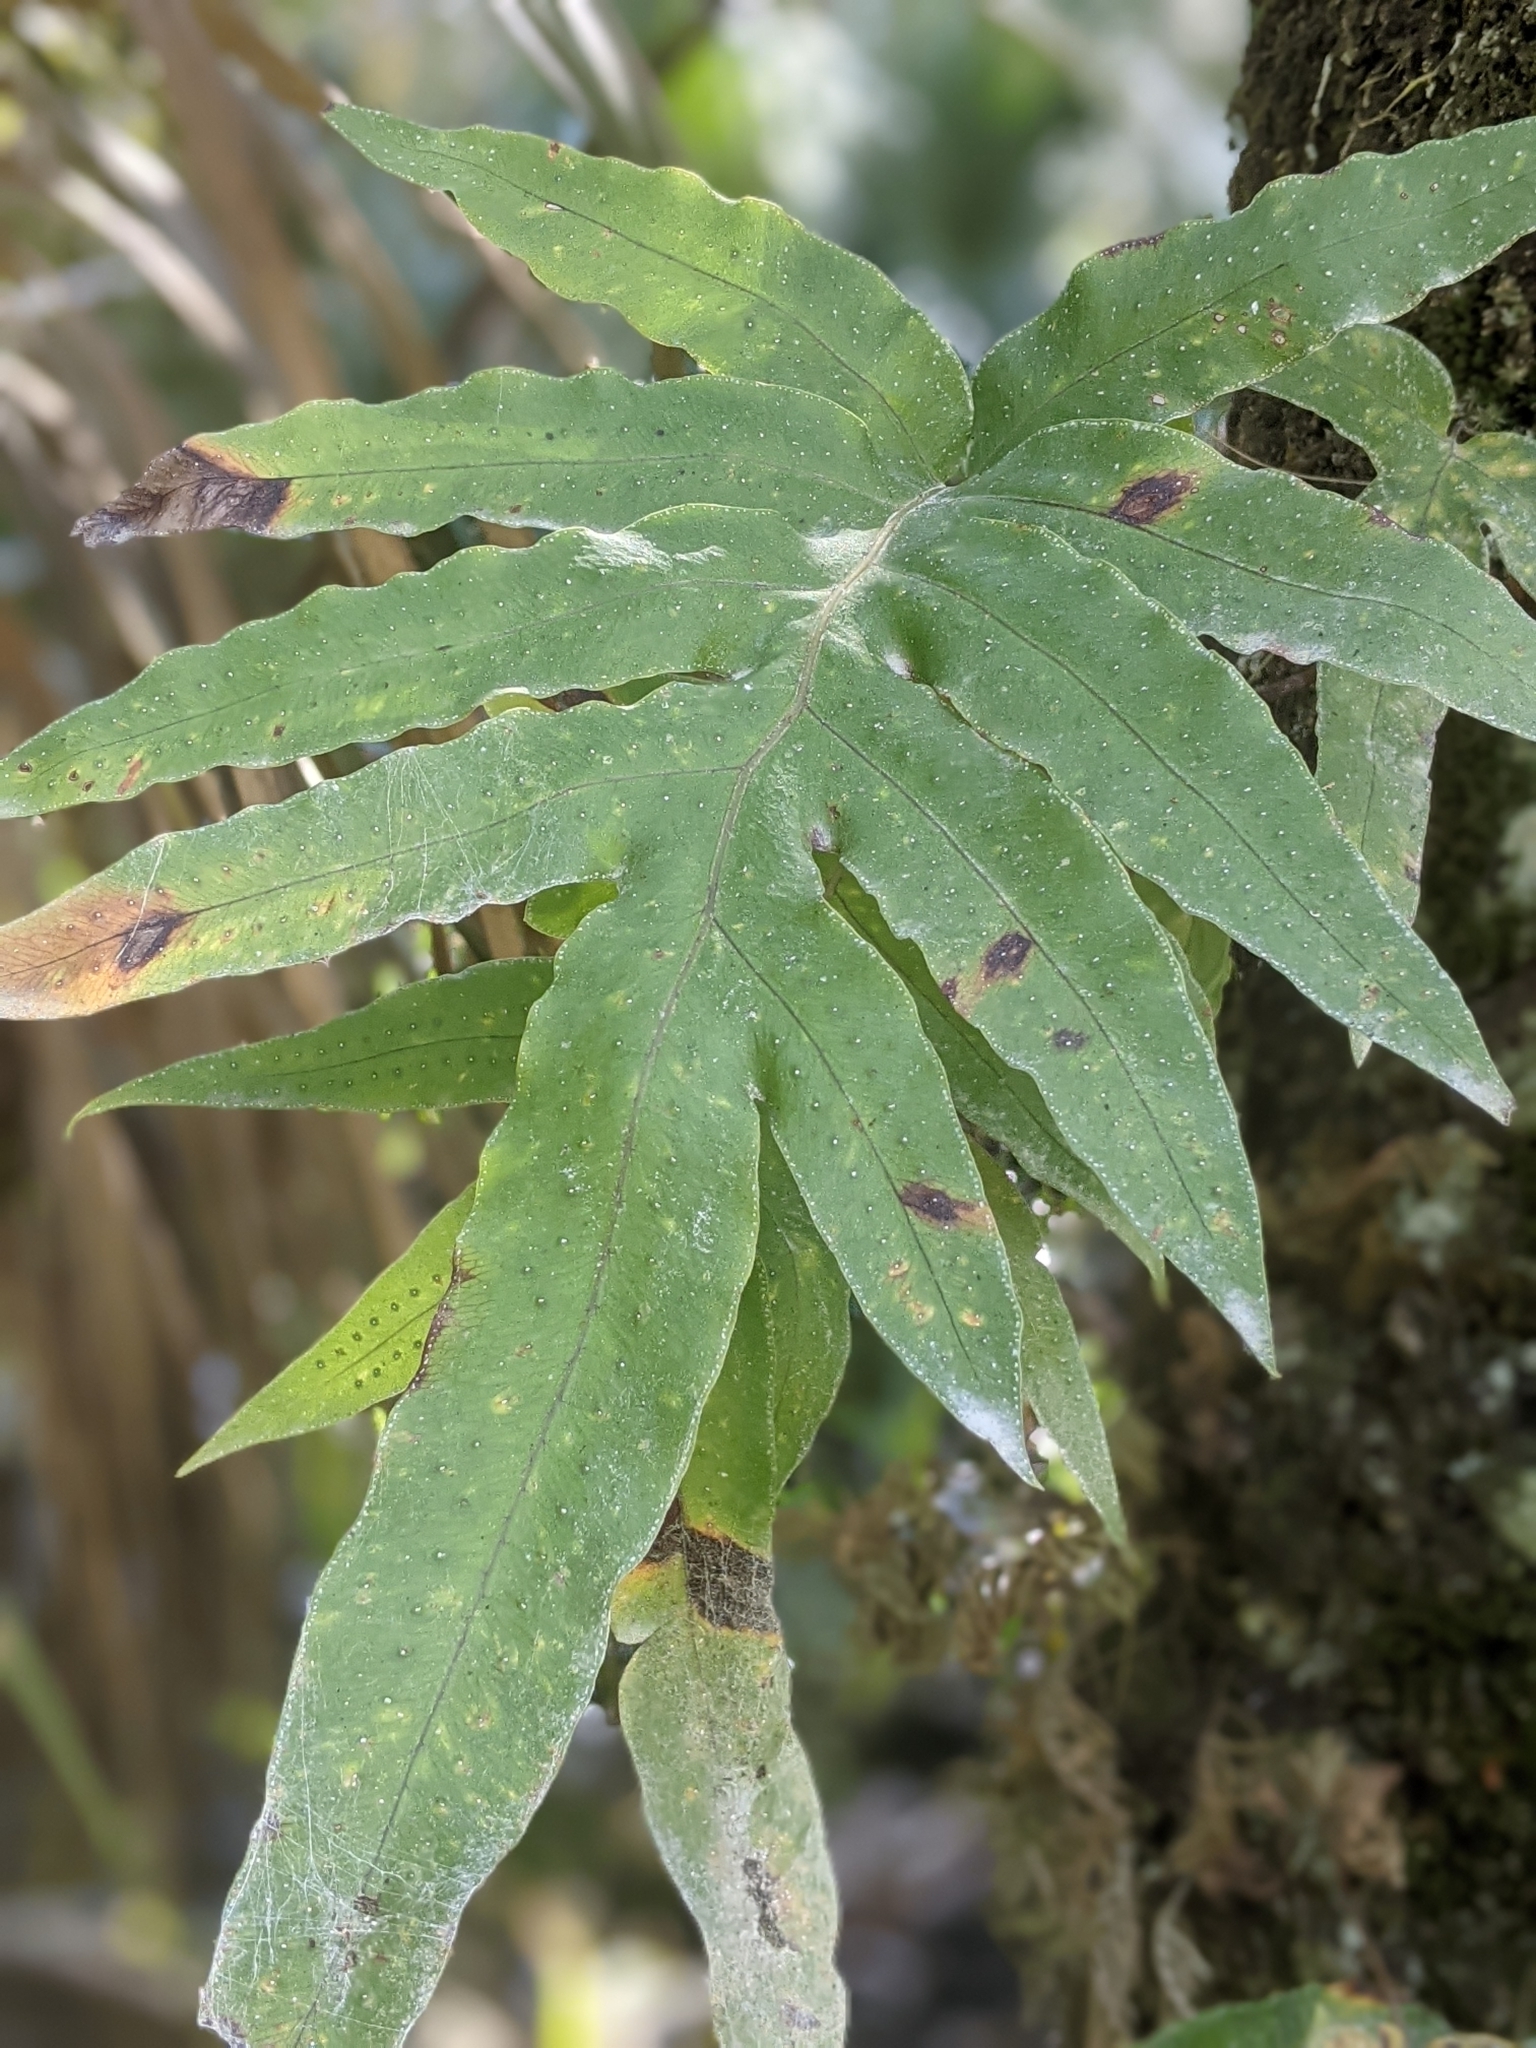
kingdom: Plantae
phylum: Tracheophyta
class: Polypodiopsida
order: Polypodiales
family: Polypodiaceae
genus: Phlebodium
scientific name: Phlebodium aureum
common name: Gold-foot fern
